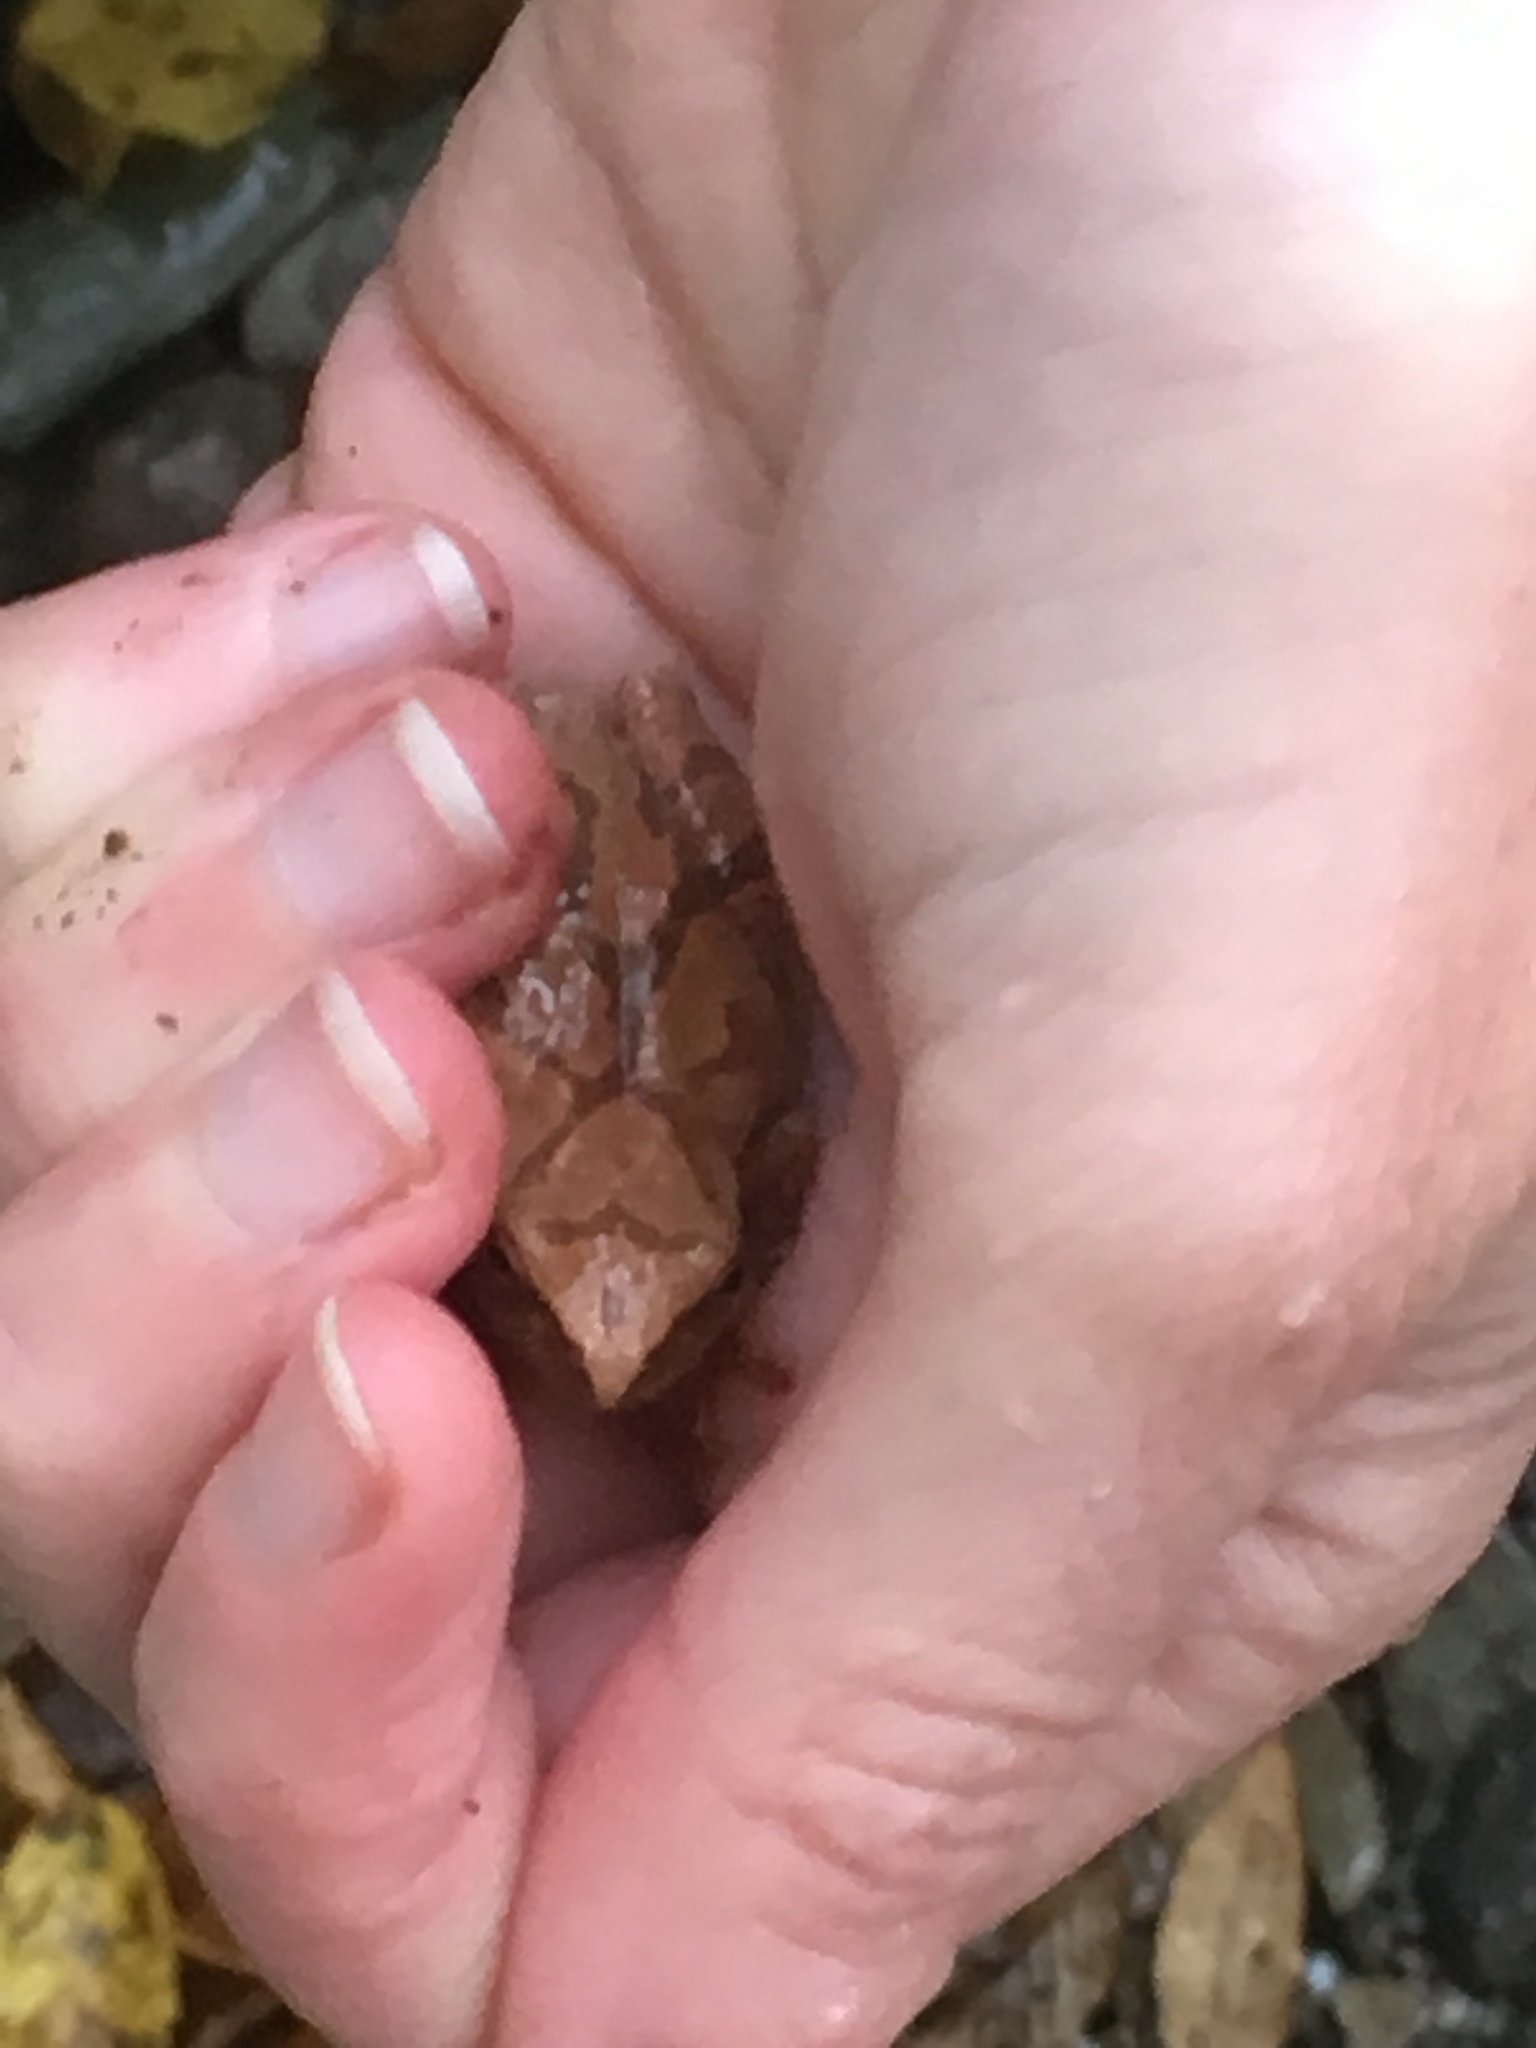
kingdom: Animalia
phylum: Chordata
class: Amphibia
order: Anura
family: Hylidae
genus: Pseudacris
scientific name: Pseudacris crucifer
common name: Spring peeper
